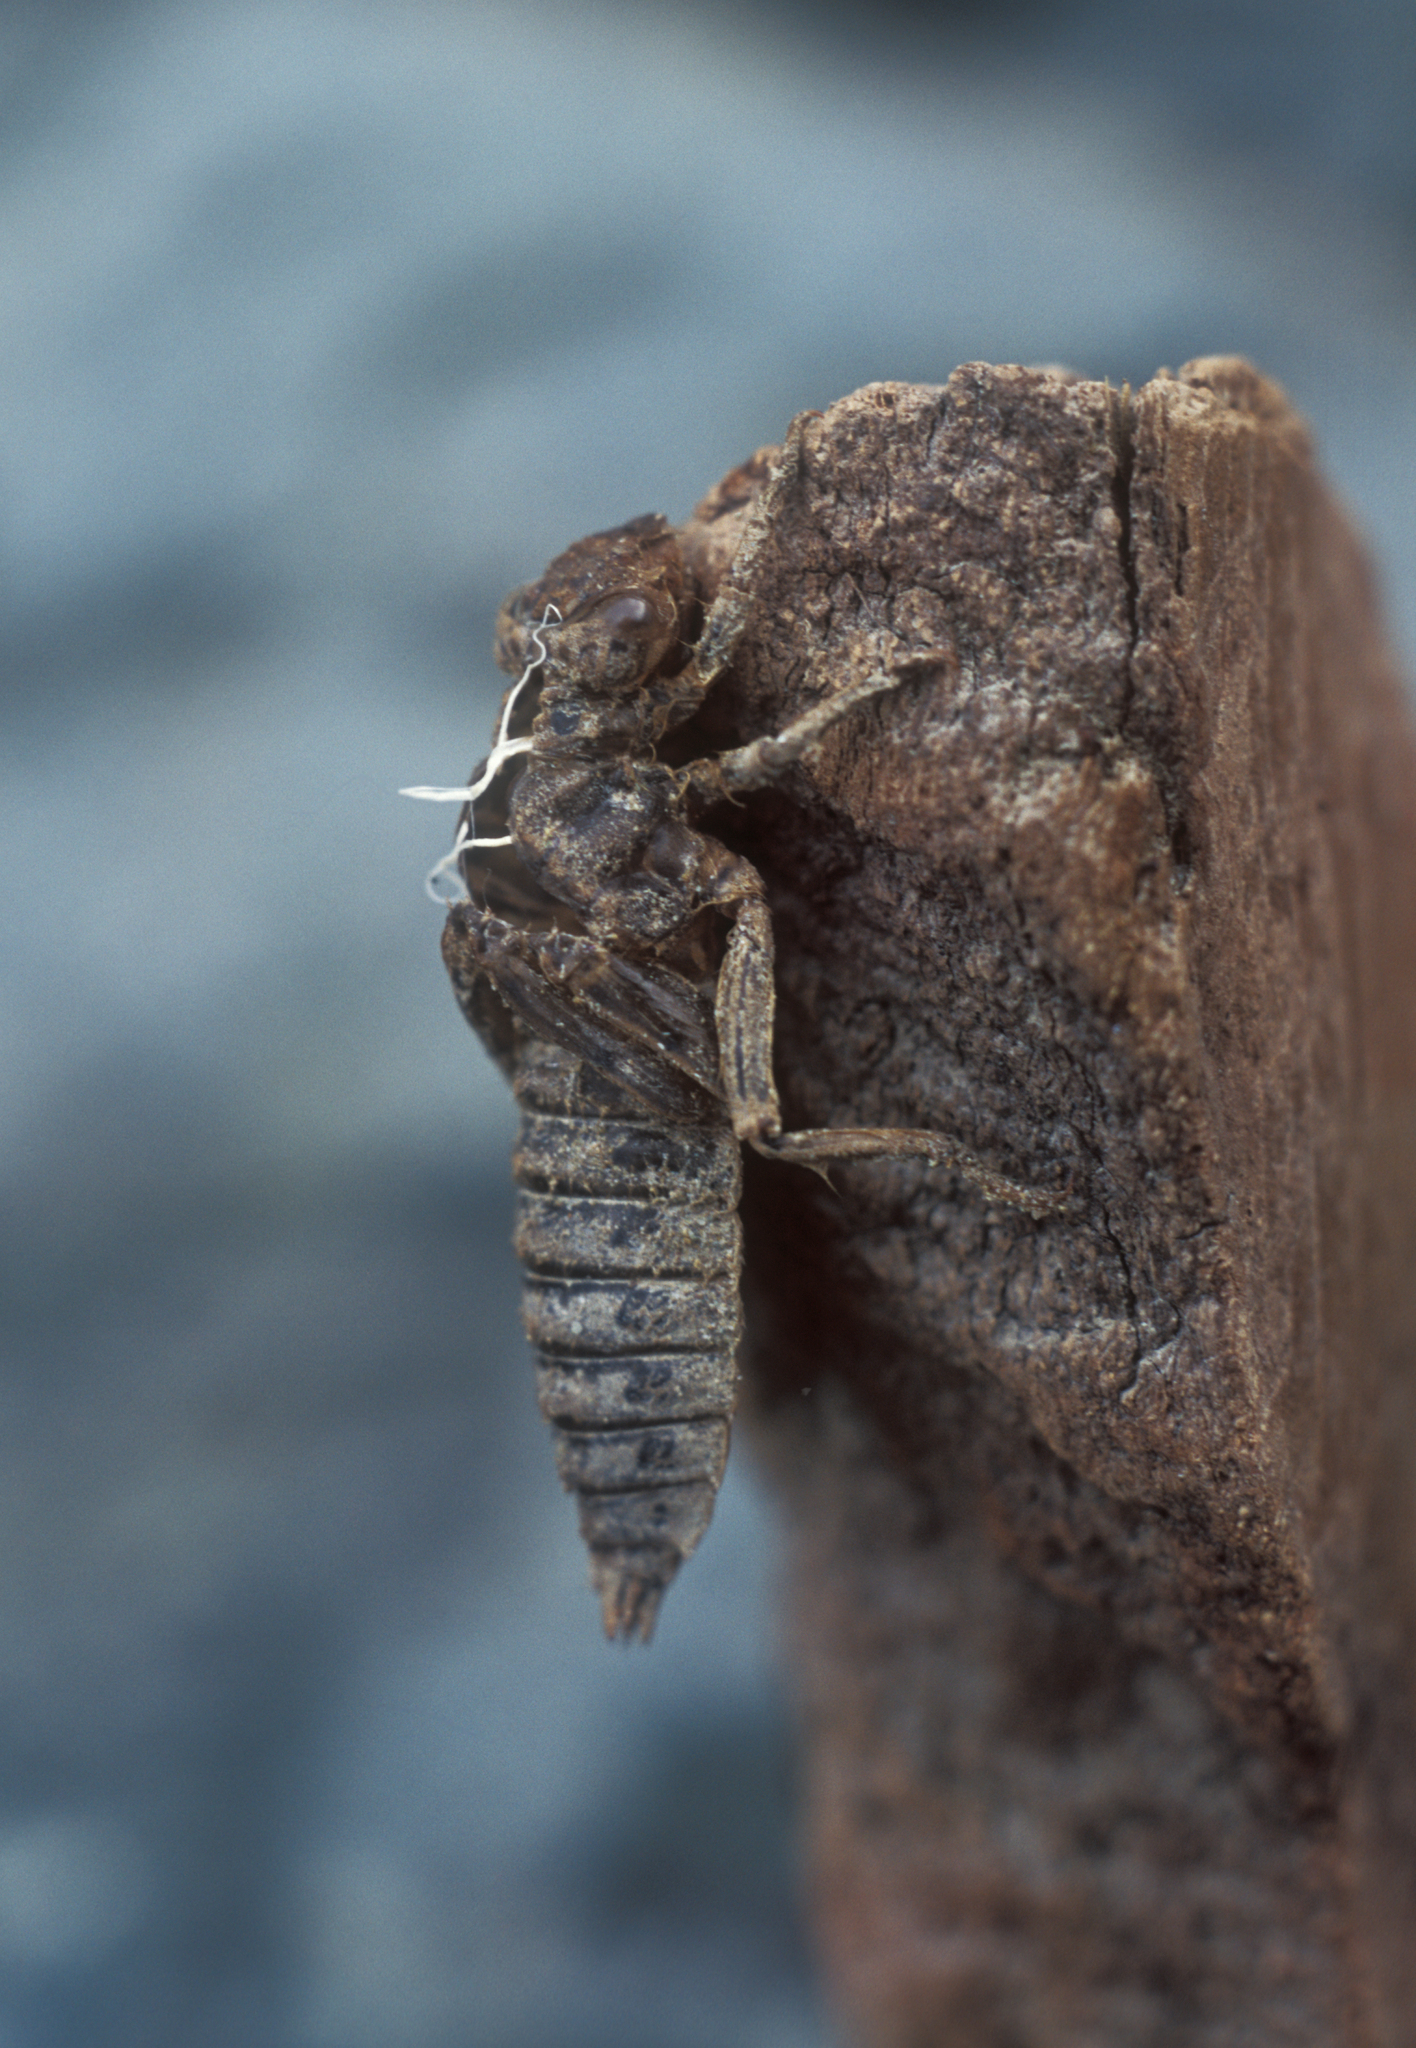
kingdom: Animalia
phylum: Arthropoda
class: Insecta
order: Odonata
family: Gomphidae
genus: Ophiogomphus
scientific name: Ophiogomphus spinicornis
